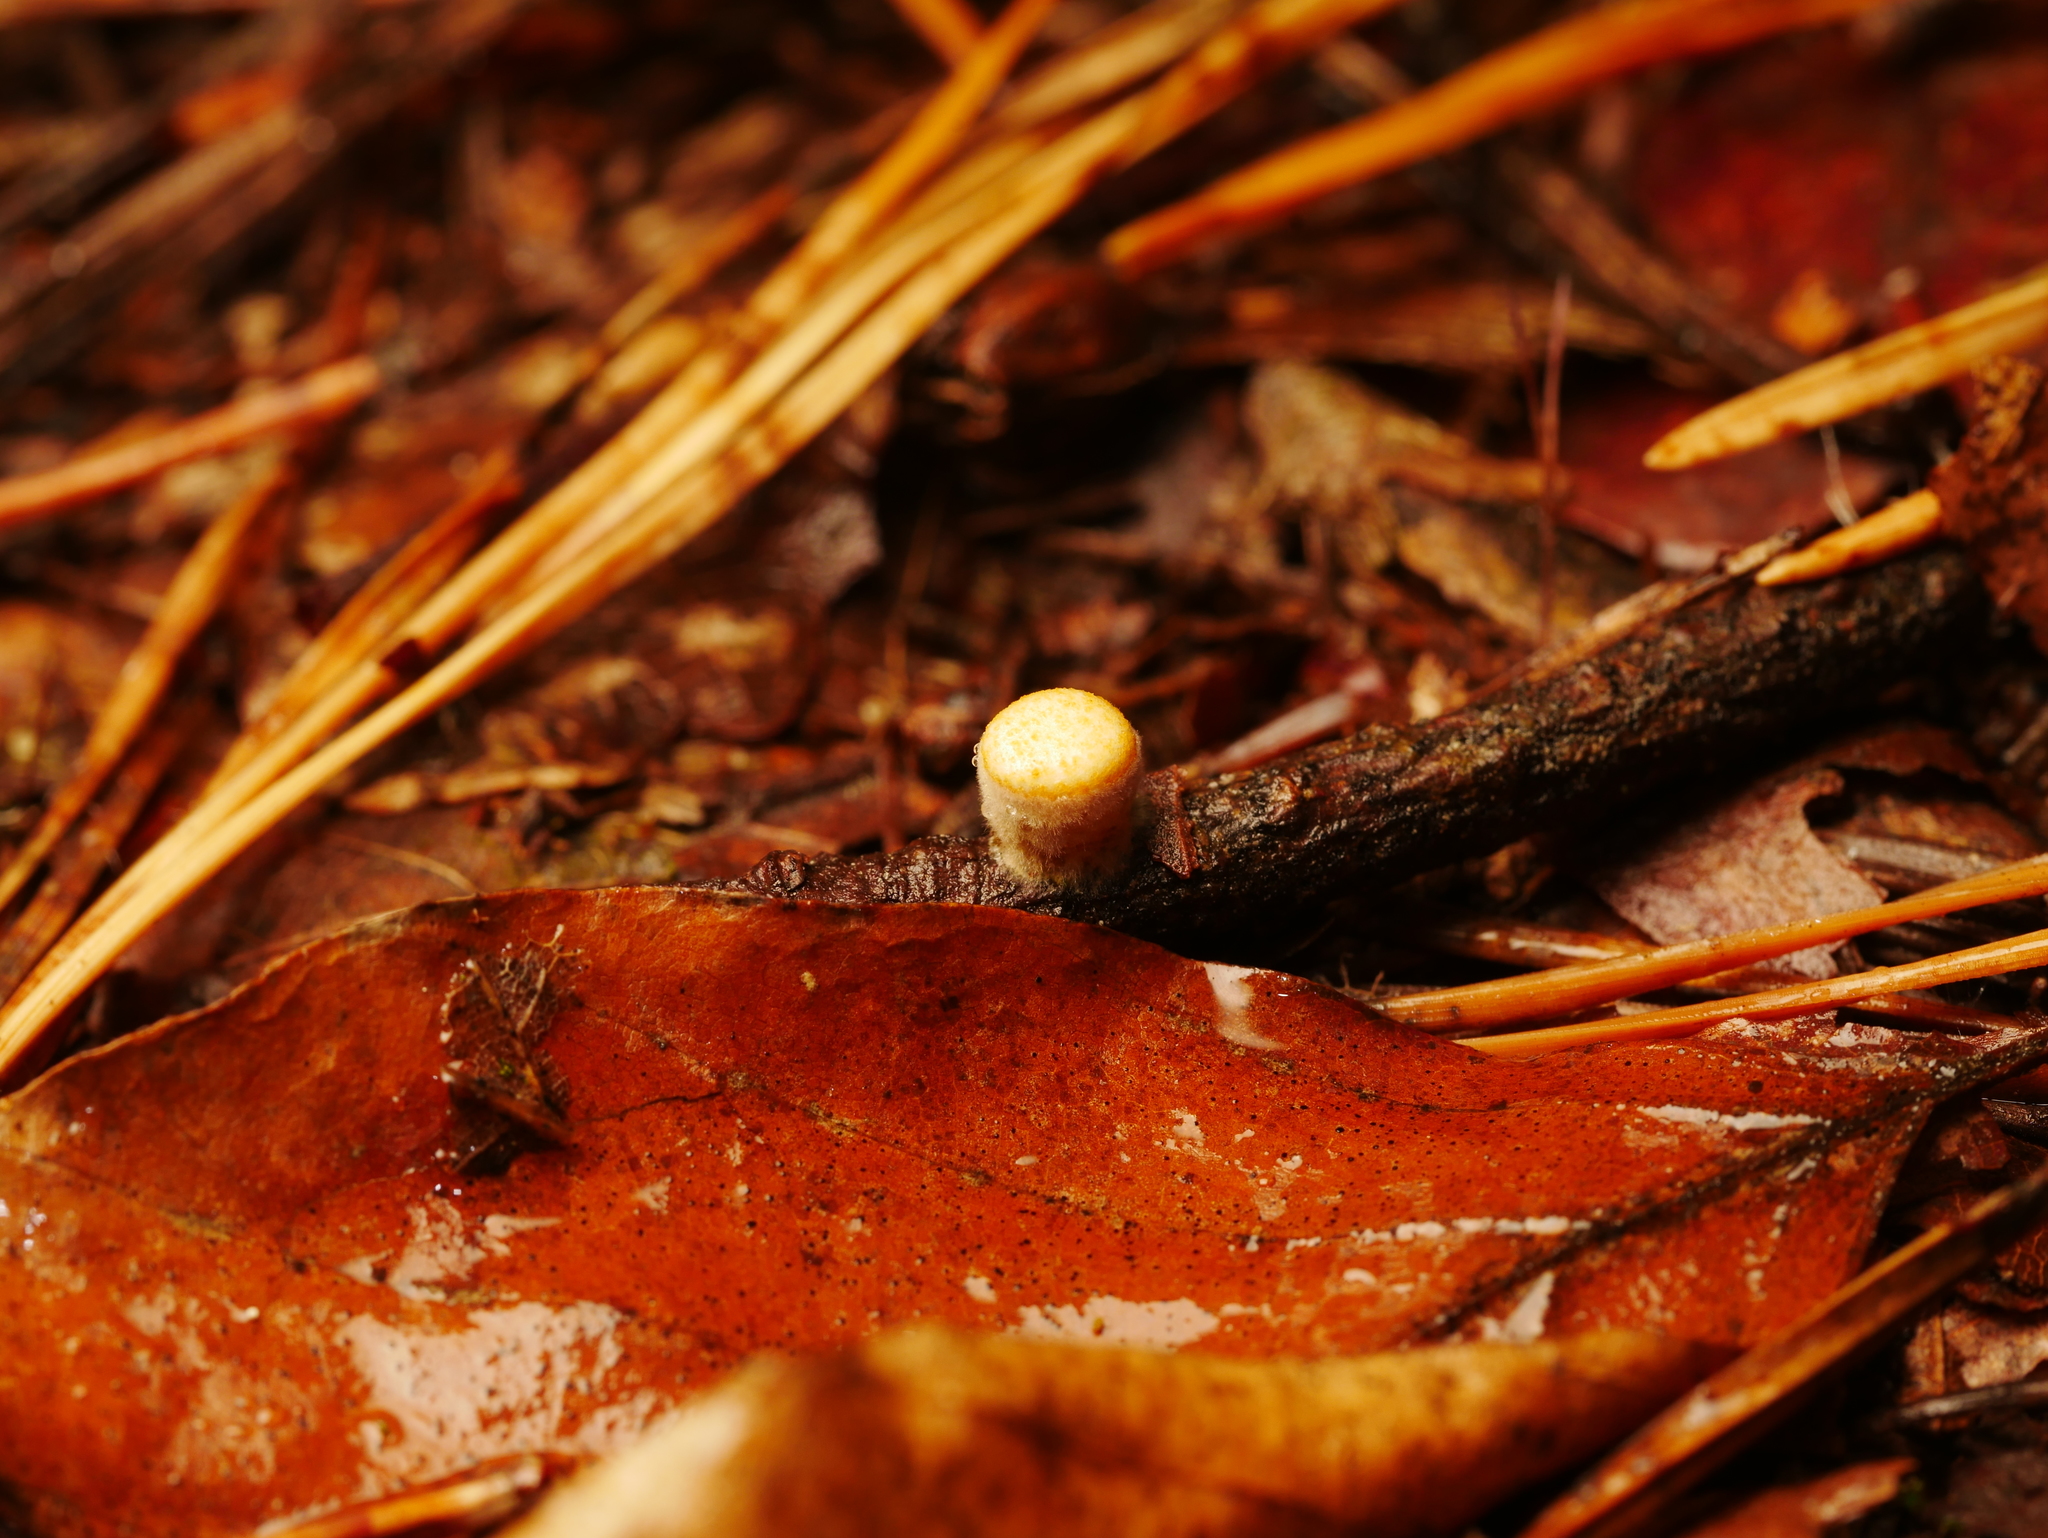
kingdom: Fungi
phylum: Basidiomycota
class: Agaricomycetes
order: Agaricales
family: Nidulariaceae
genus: Crucibulum
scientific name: Crucibulum laeve
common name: Common bird's nest
